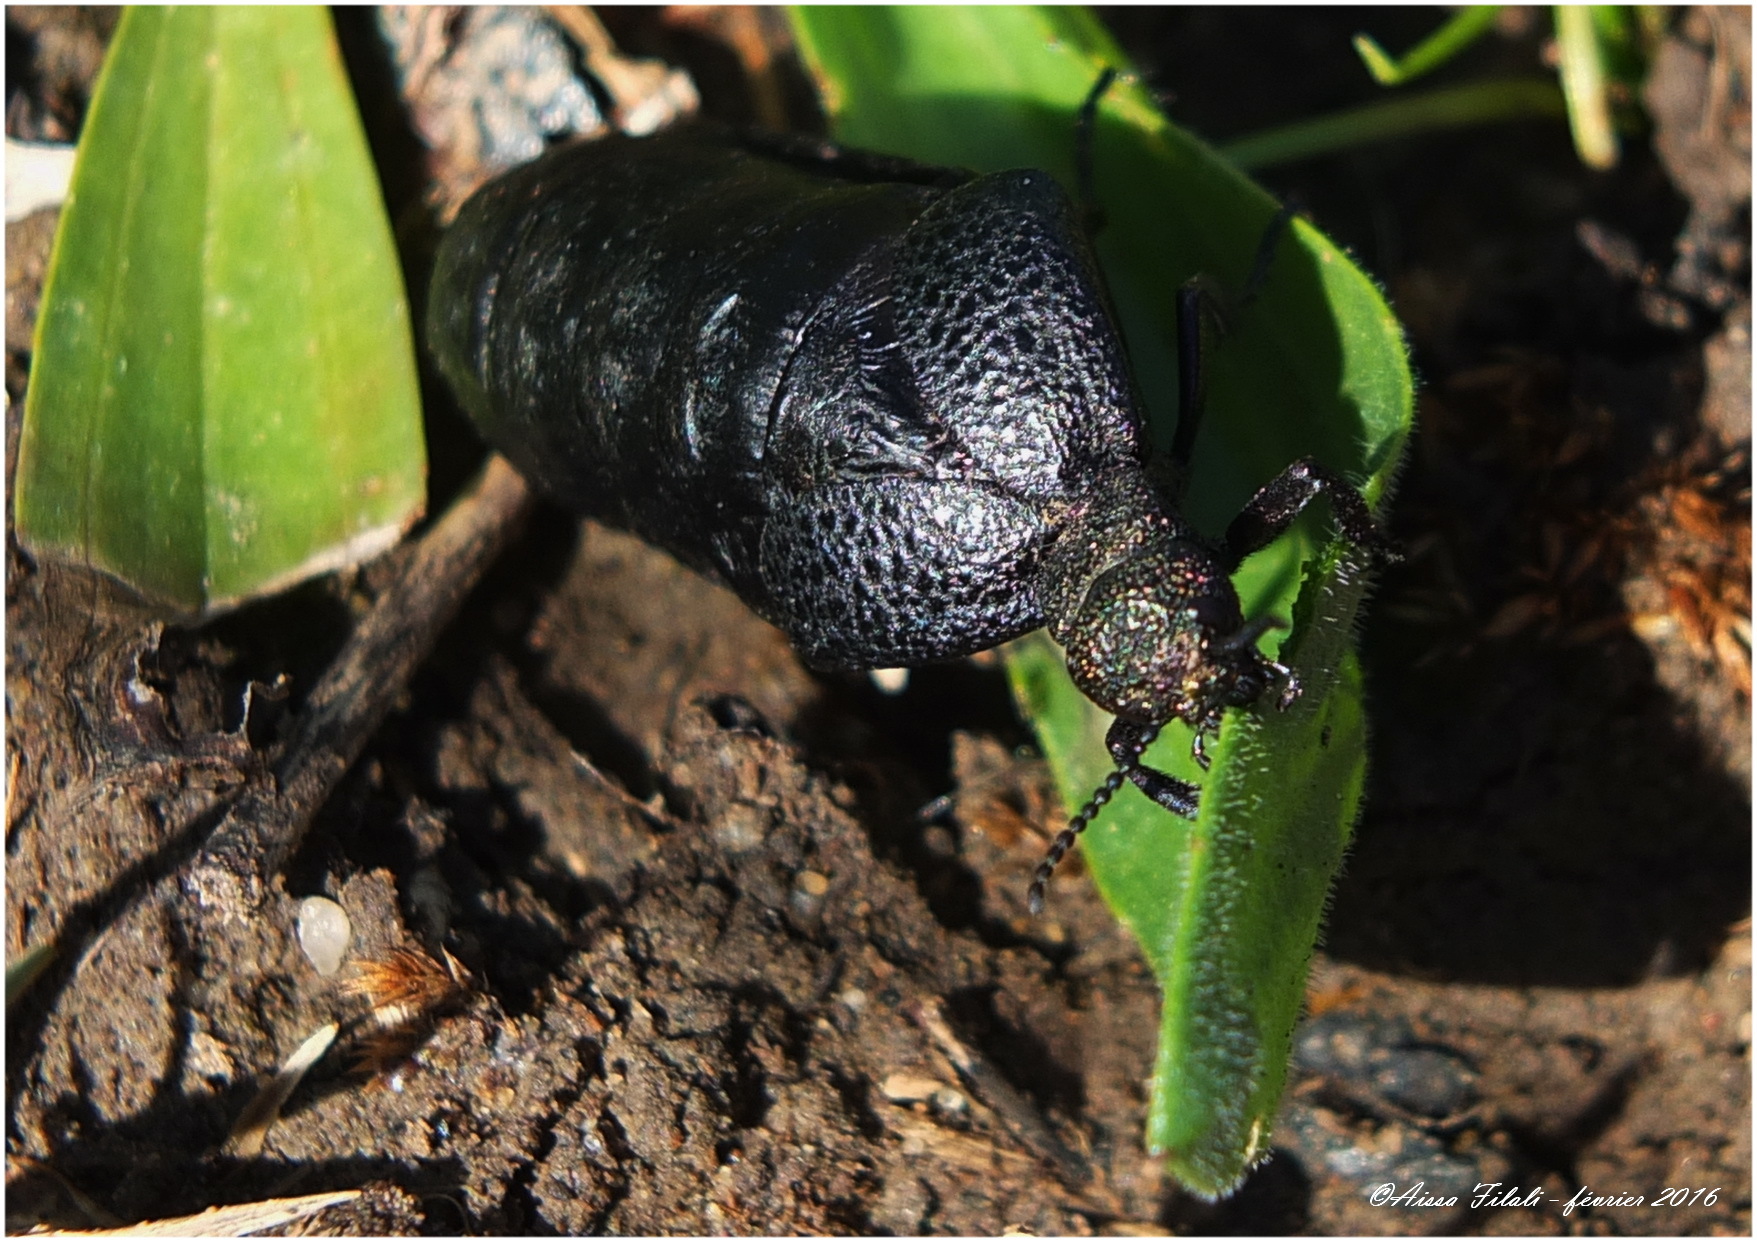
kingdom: Animalia
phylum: Arthropoda
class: Insecta
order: Coleoptera
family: Meloidae
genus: Meloe
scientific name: Meloe cavensis
